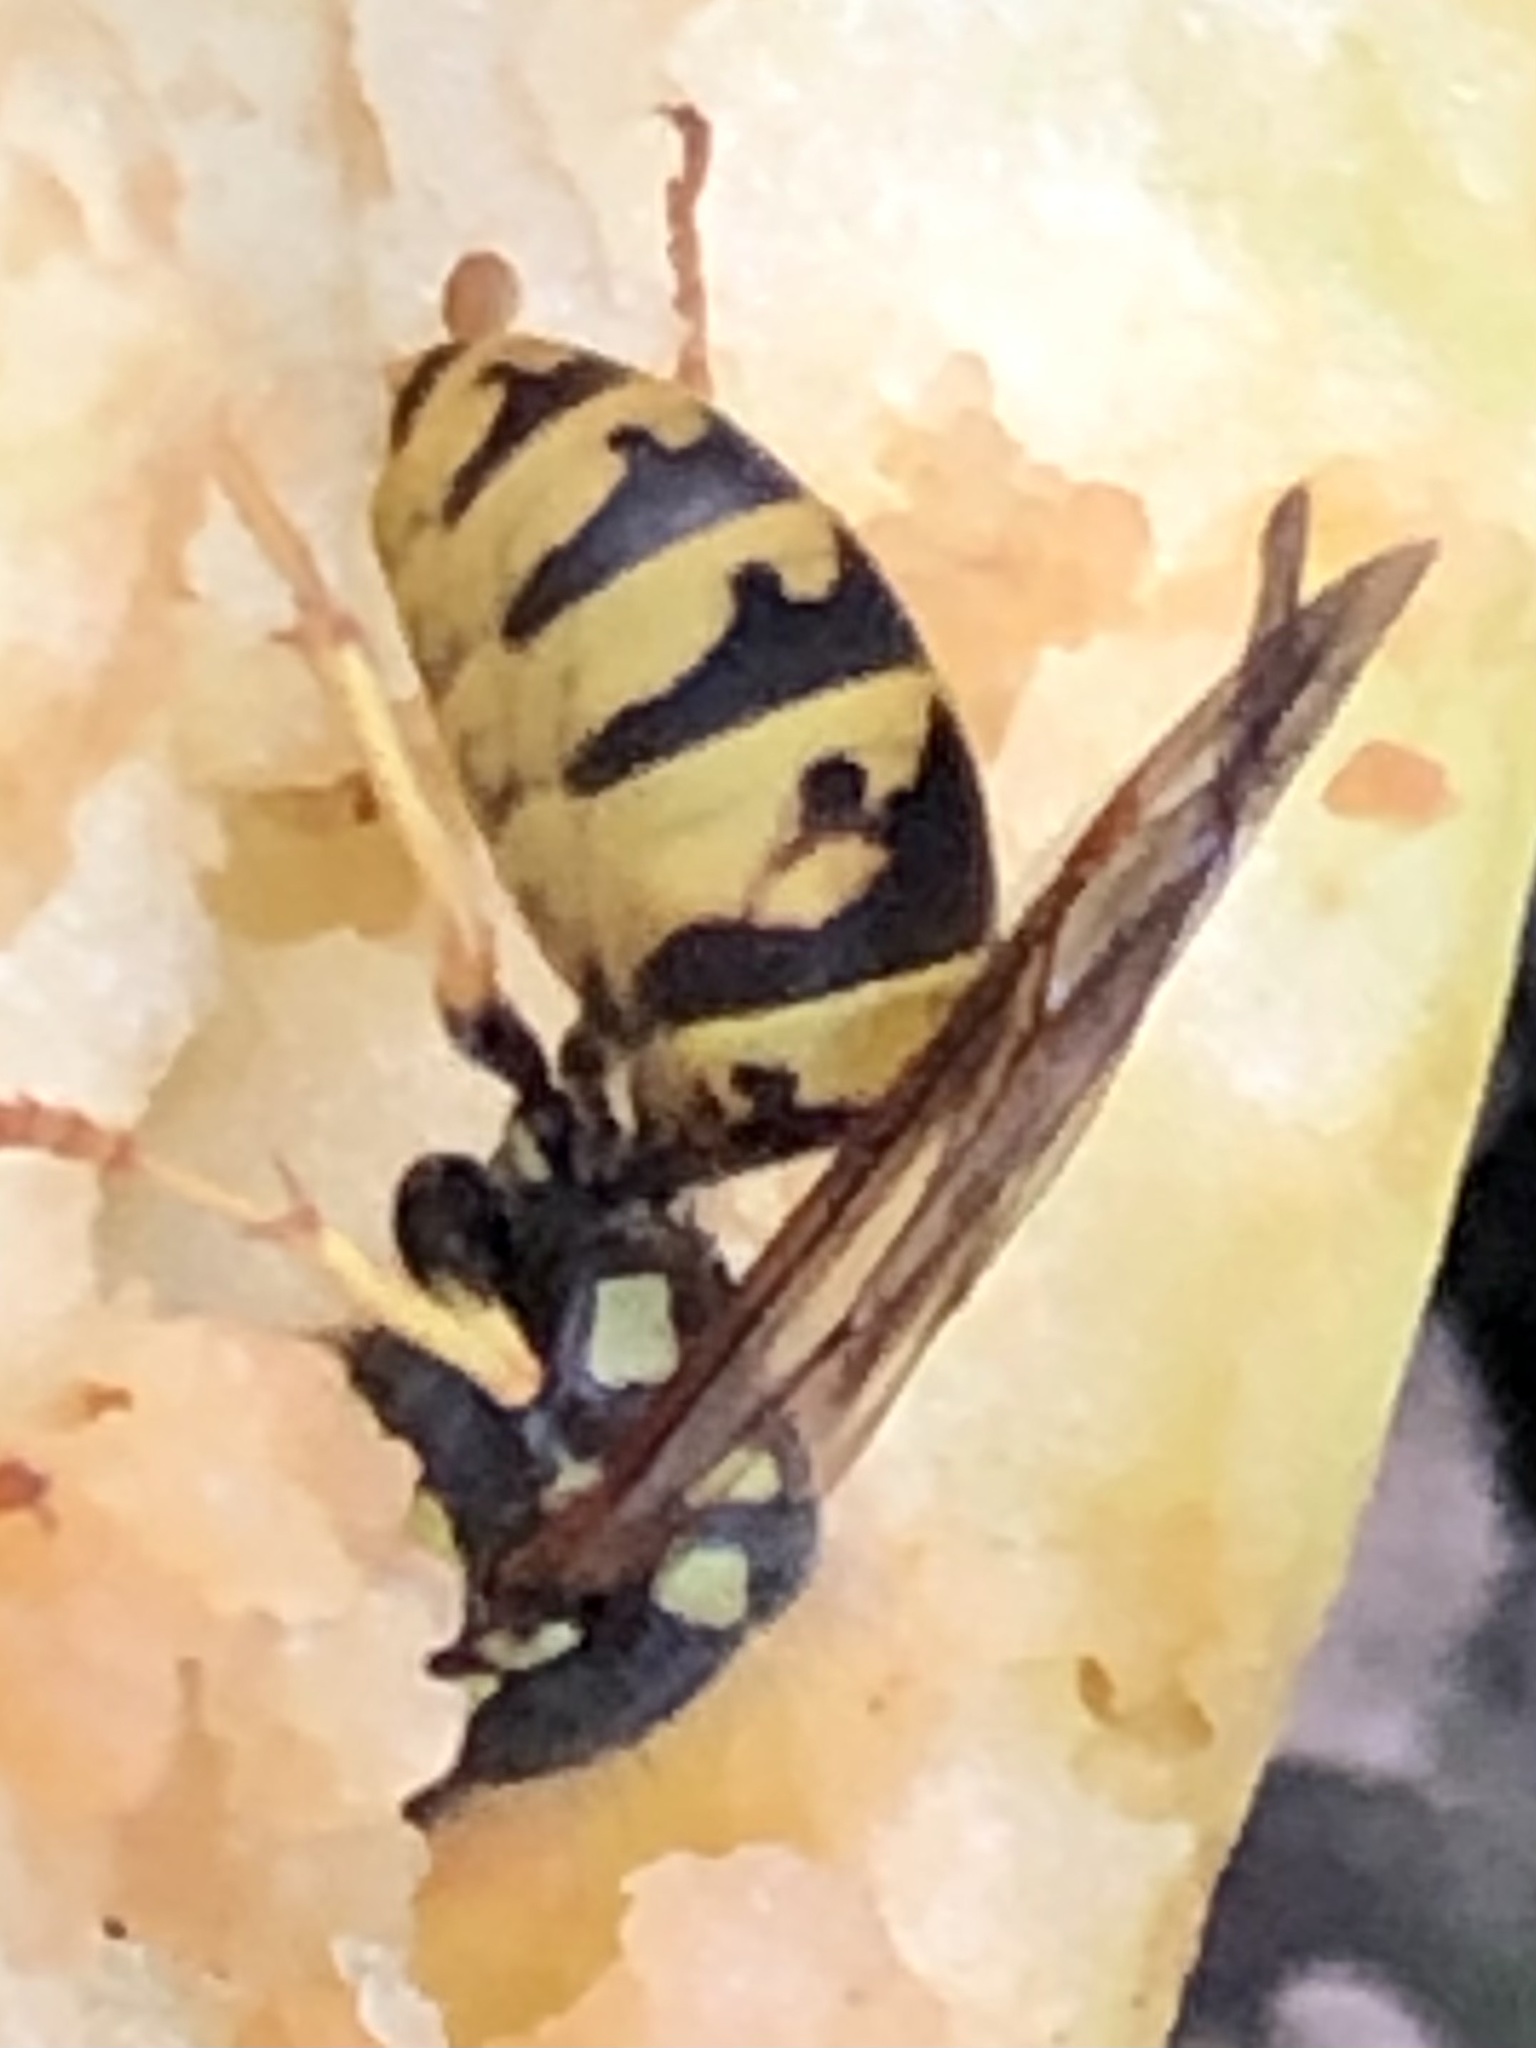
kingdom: Animalia
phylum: Arthropoda
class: Insecta
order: Hymenoptera
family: Vespidae
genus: Vespula
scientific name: Vespula germanica
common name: German wasp
